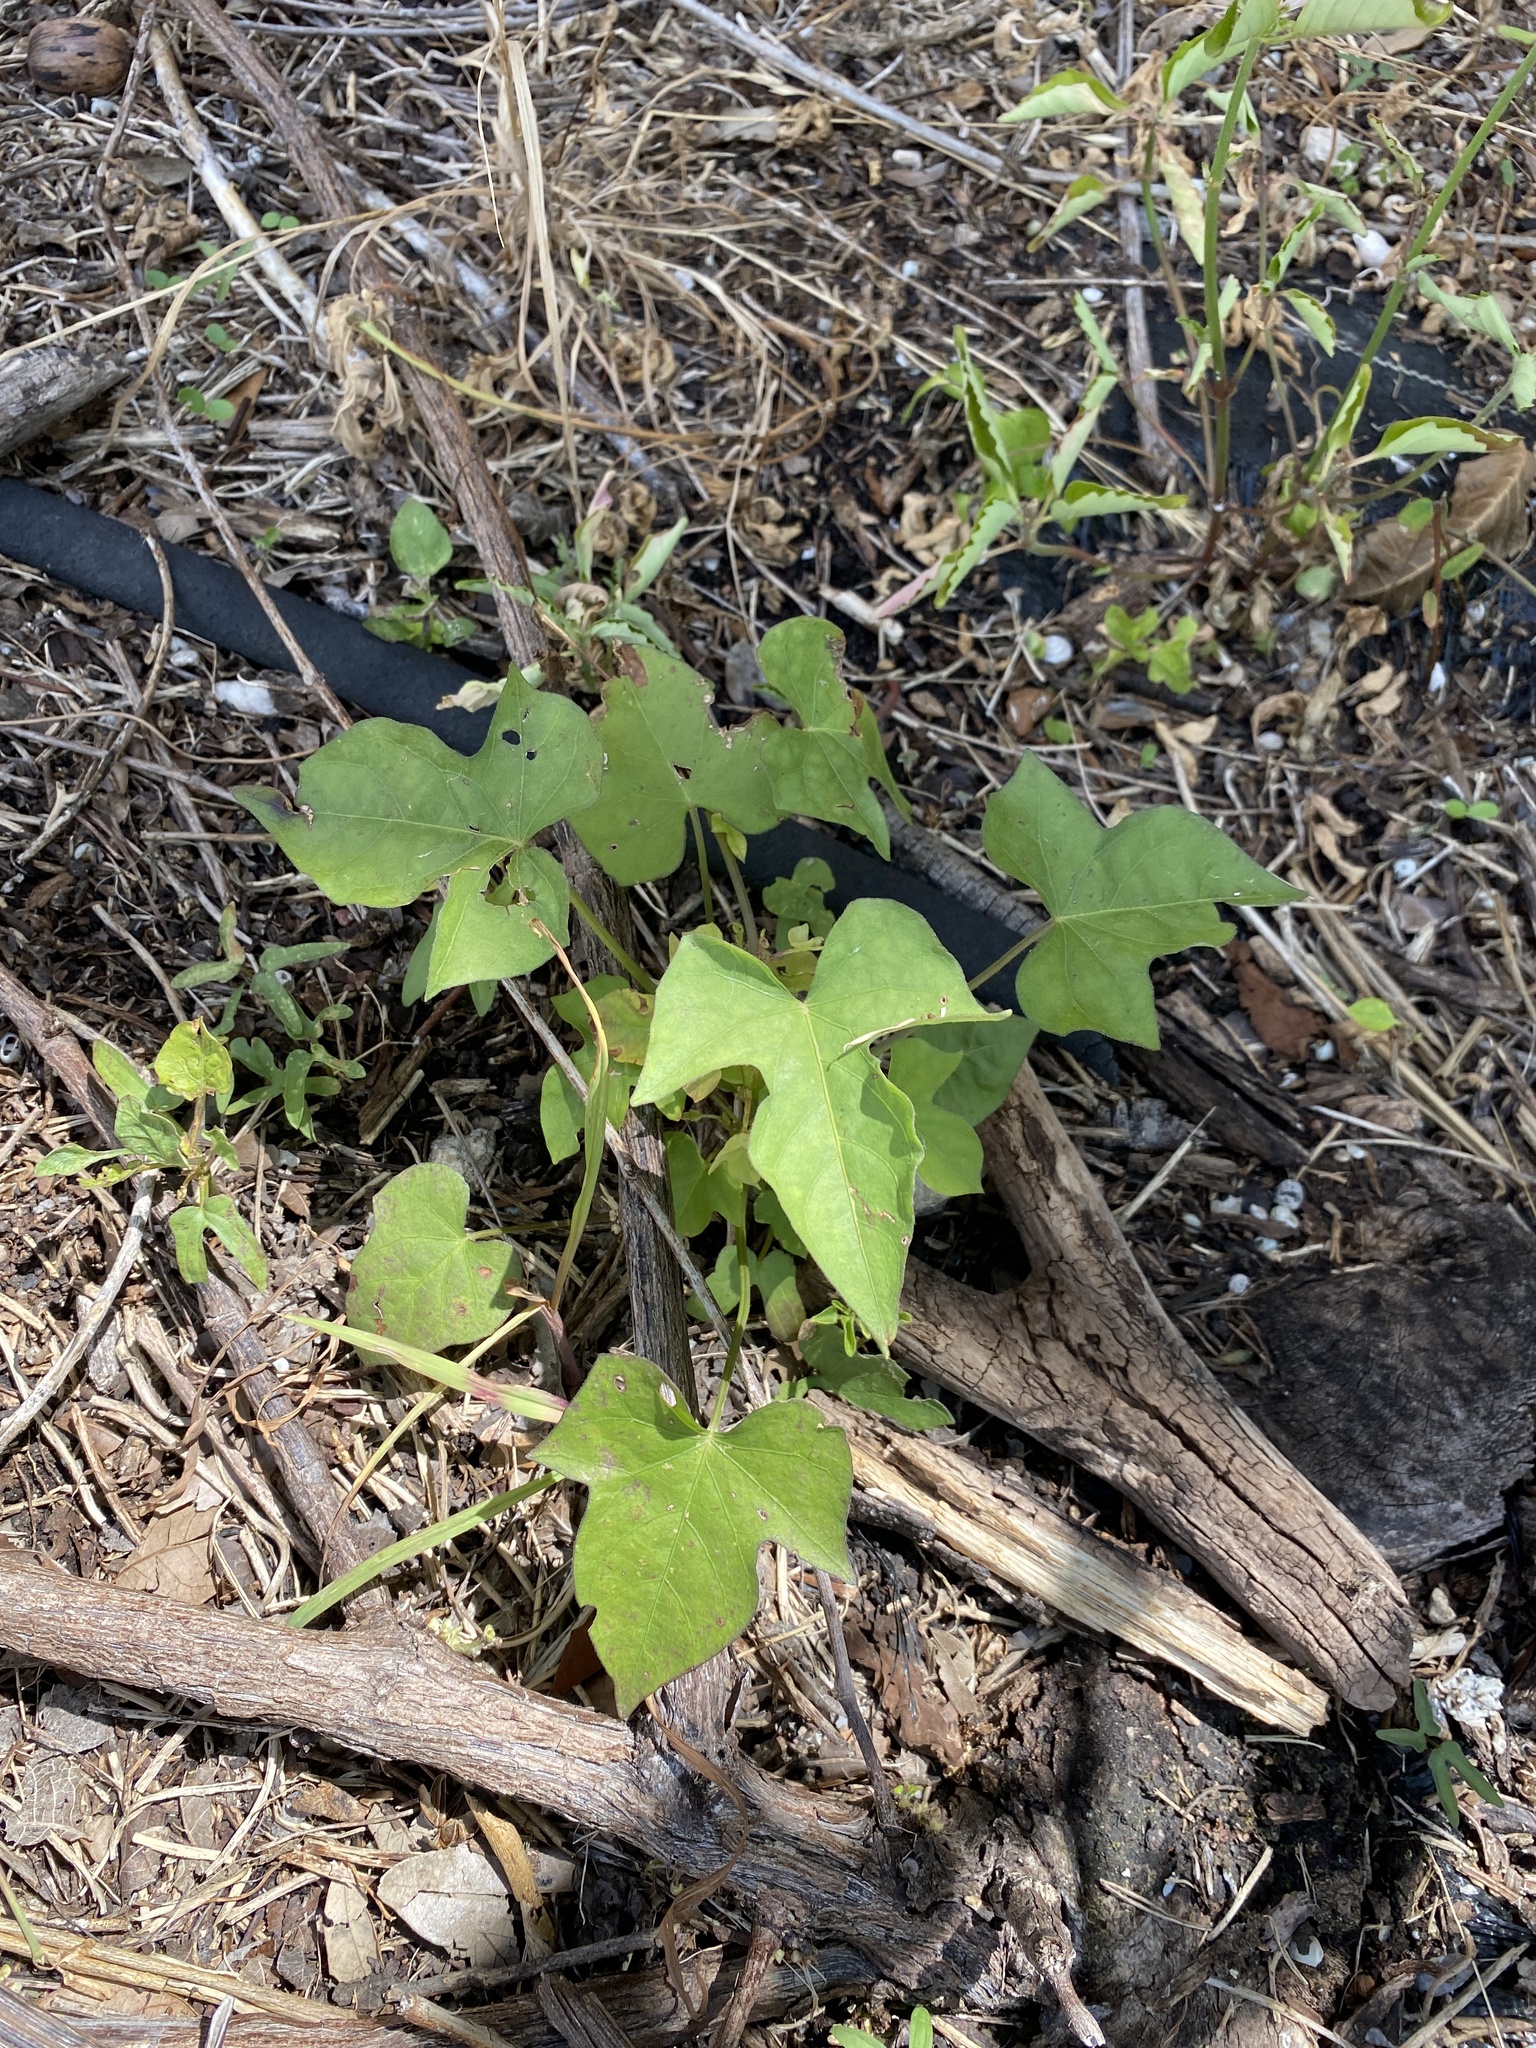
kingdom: Plantae
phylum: Tracheophyta
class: Magnoliopsida
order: Solanales
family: Convolvulaceae
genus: Ipomoea
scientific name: Ipomoea cordatotriloba
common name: Cotton morning glory
